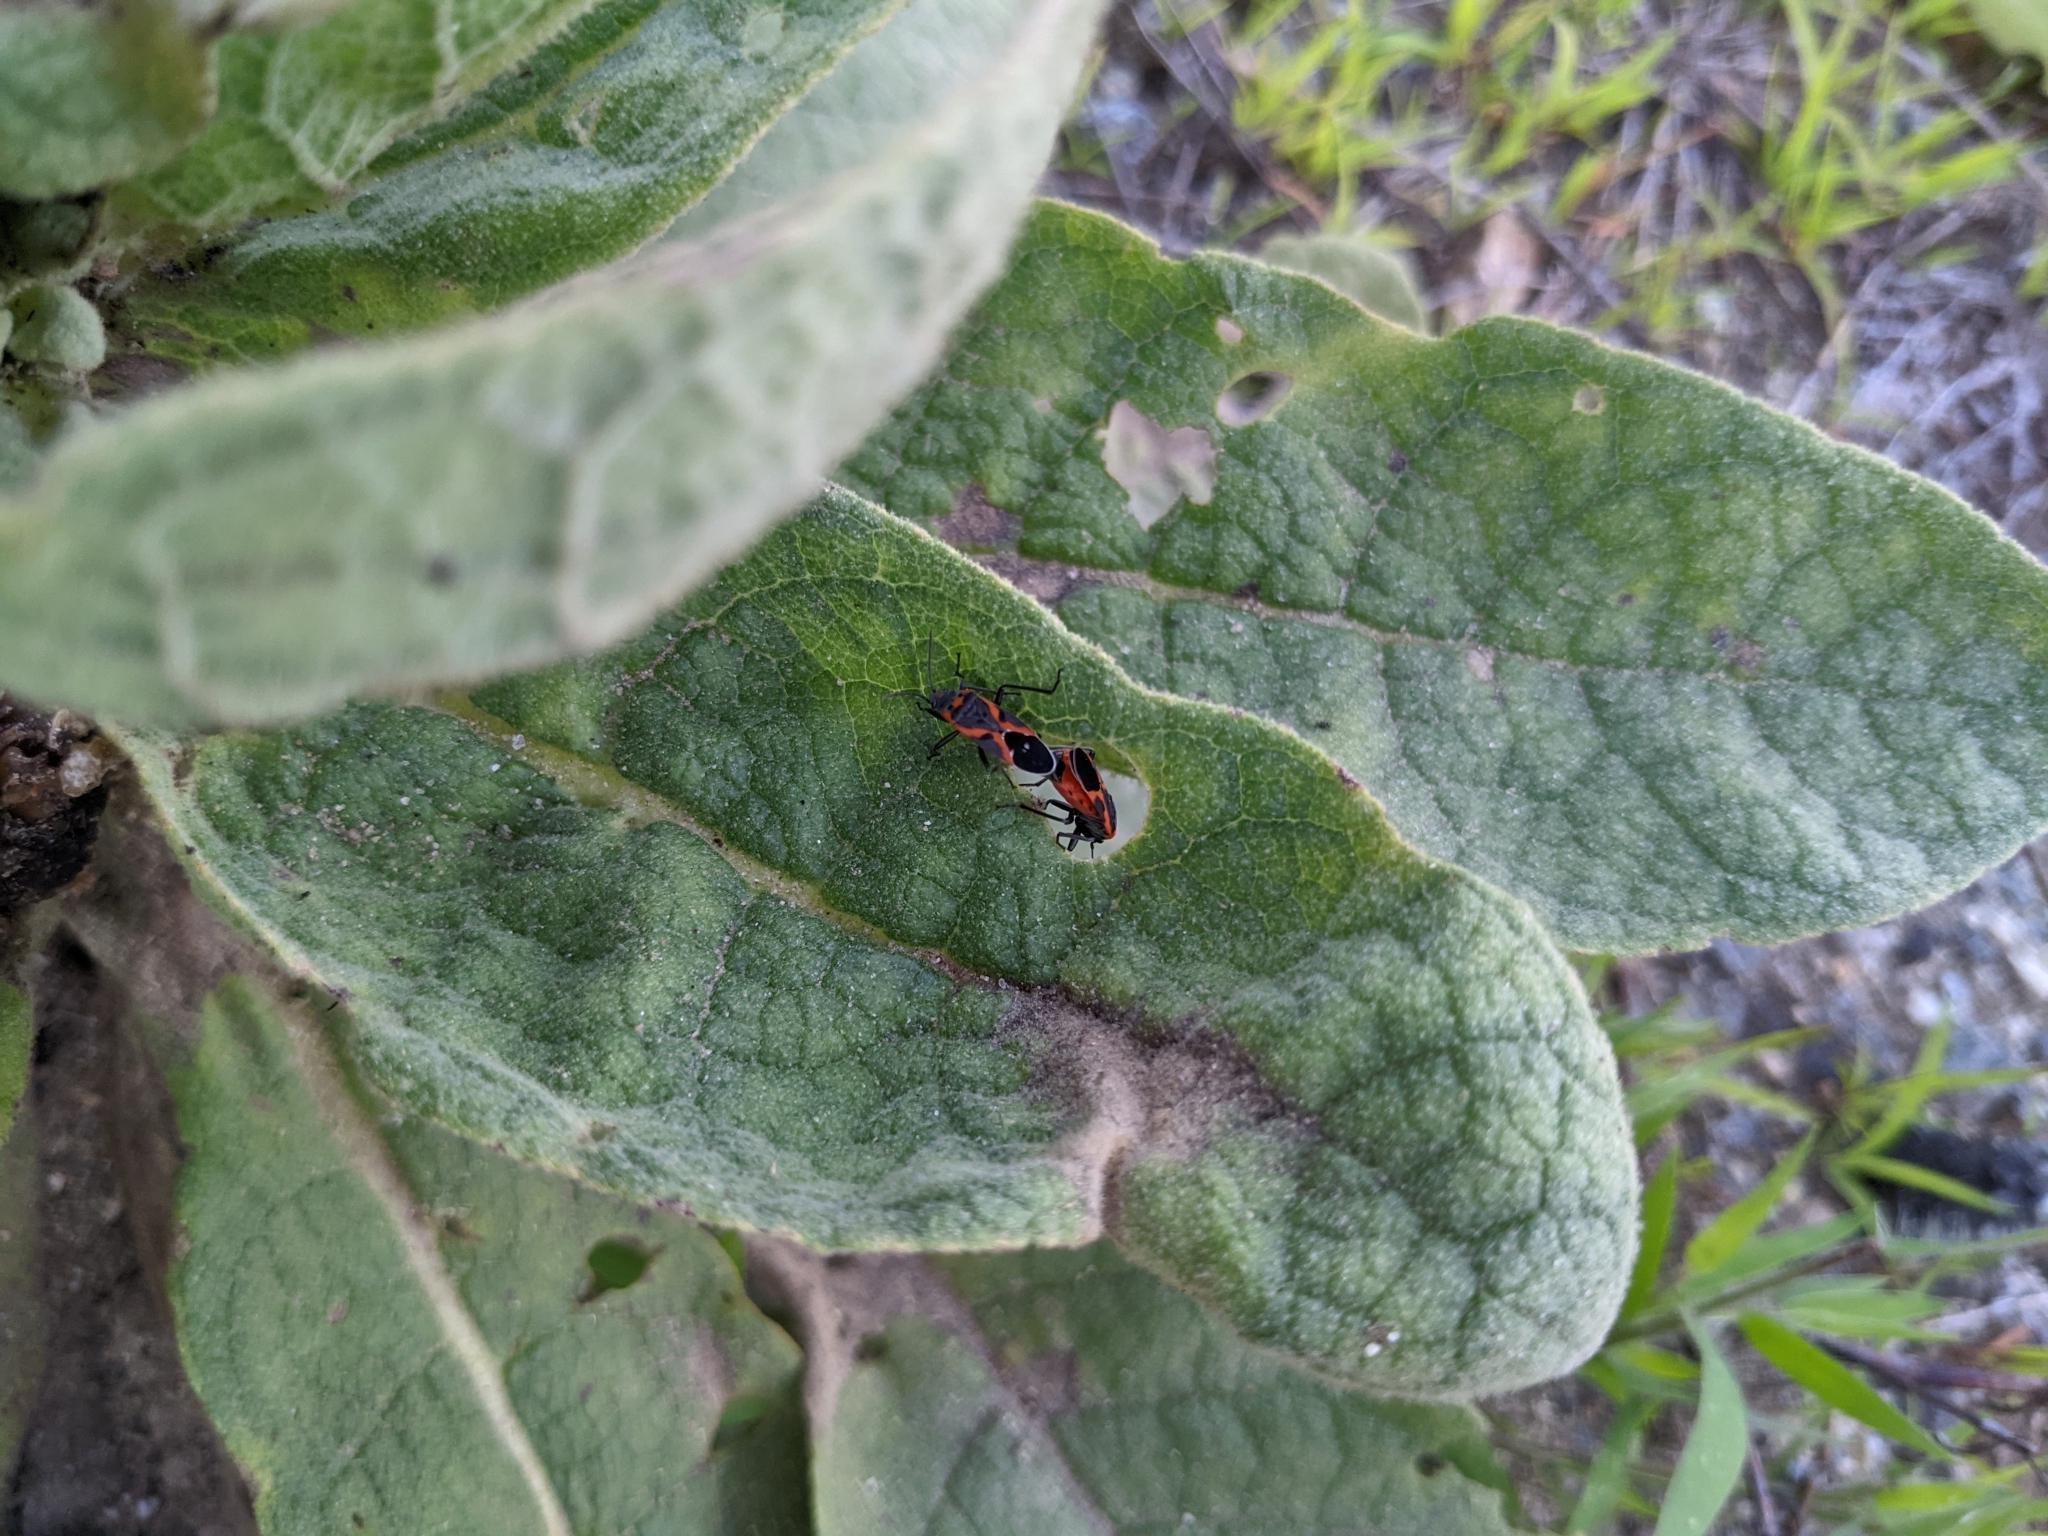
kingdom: Animalia
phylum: Arthropoda
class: Insecta
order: Hemiptera
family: Lygaeidae
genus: Lygaeus
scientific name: Lygaeus kalmii
